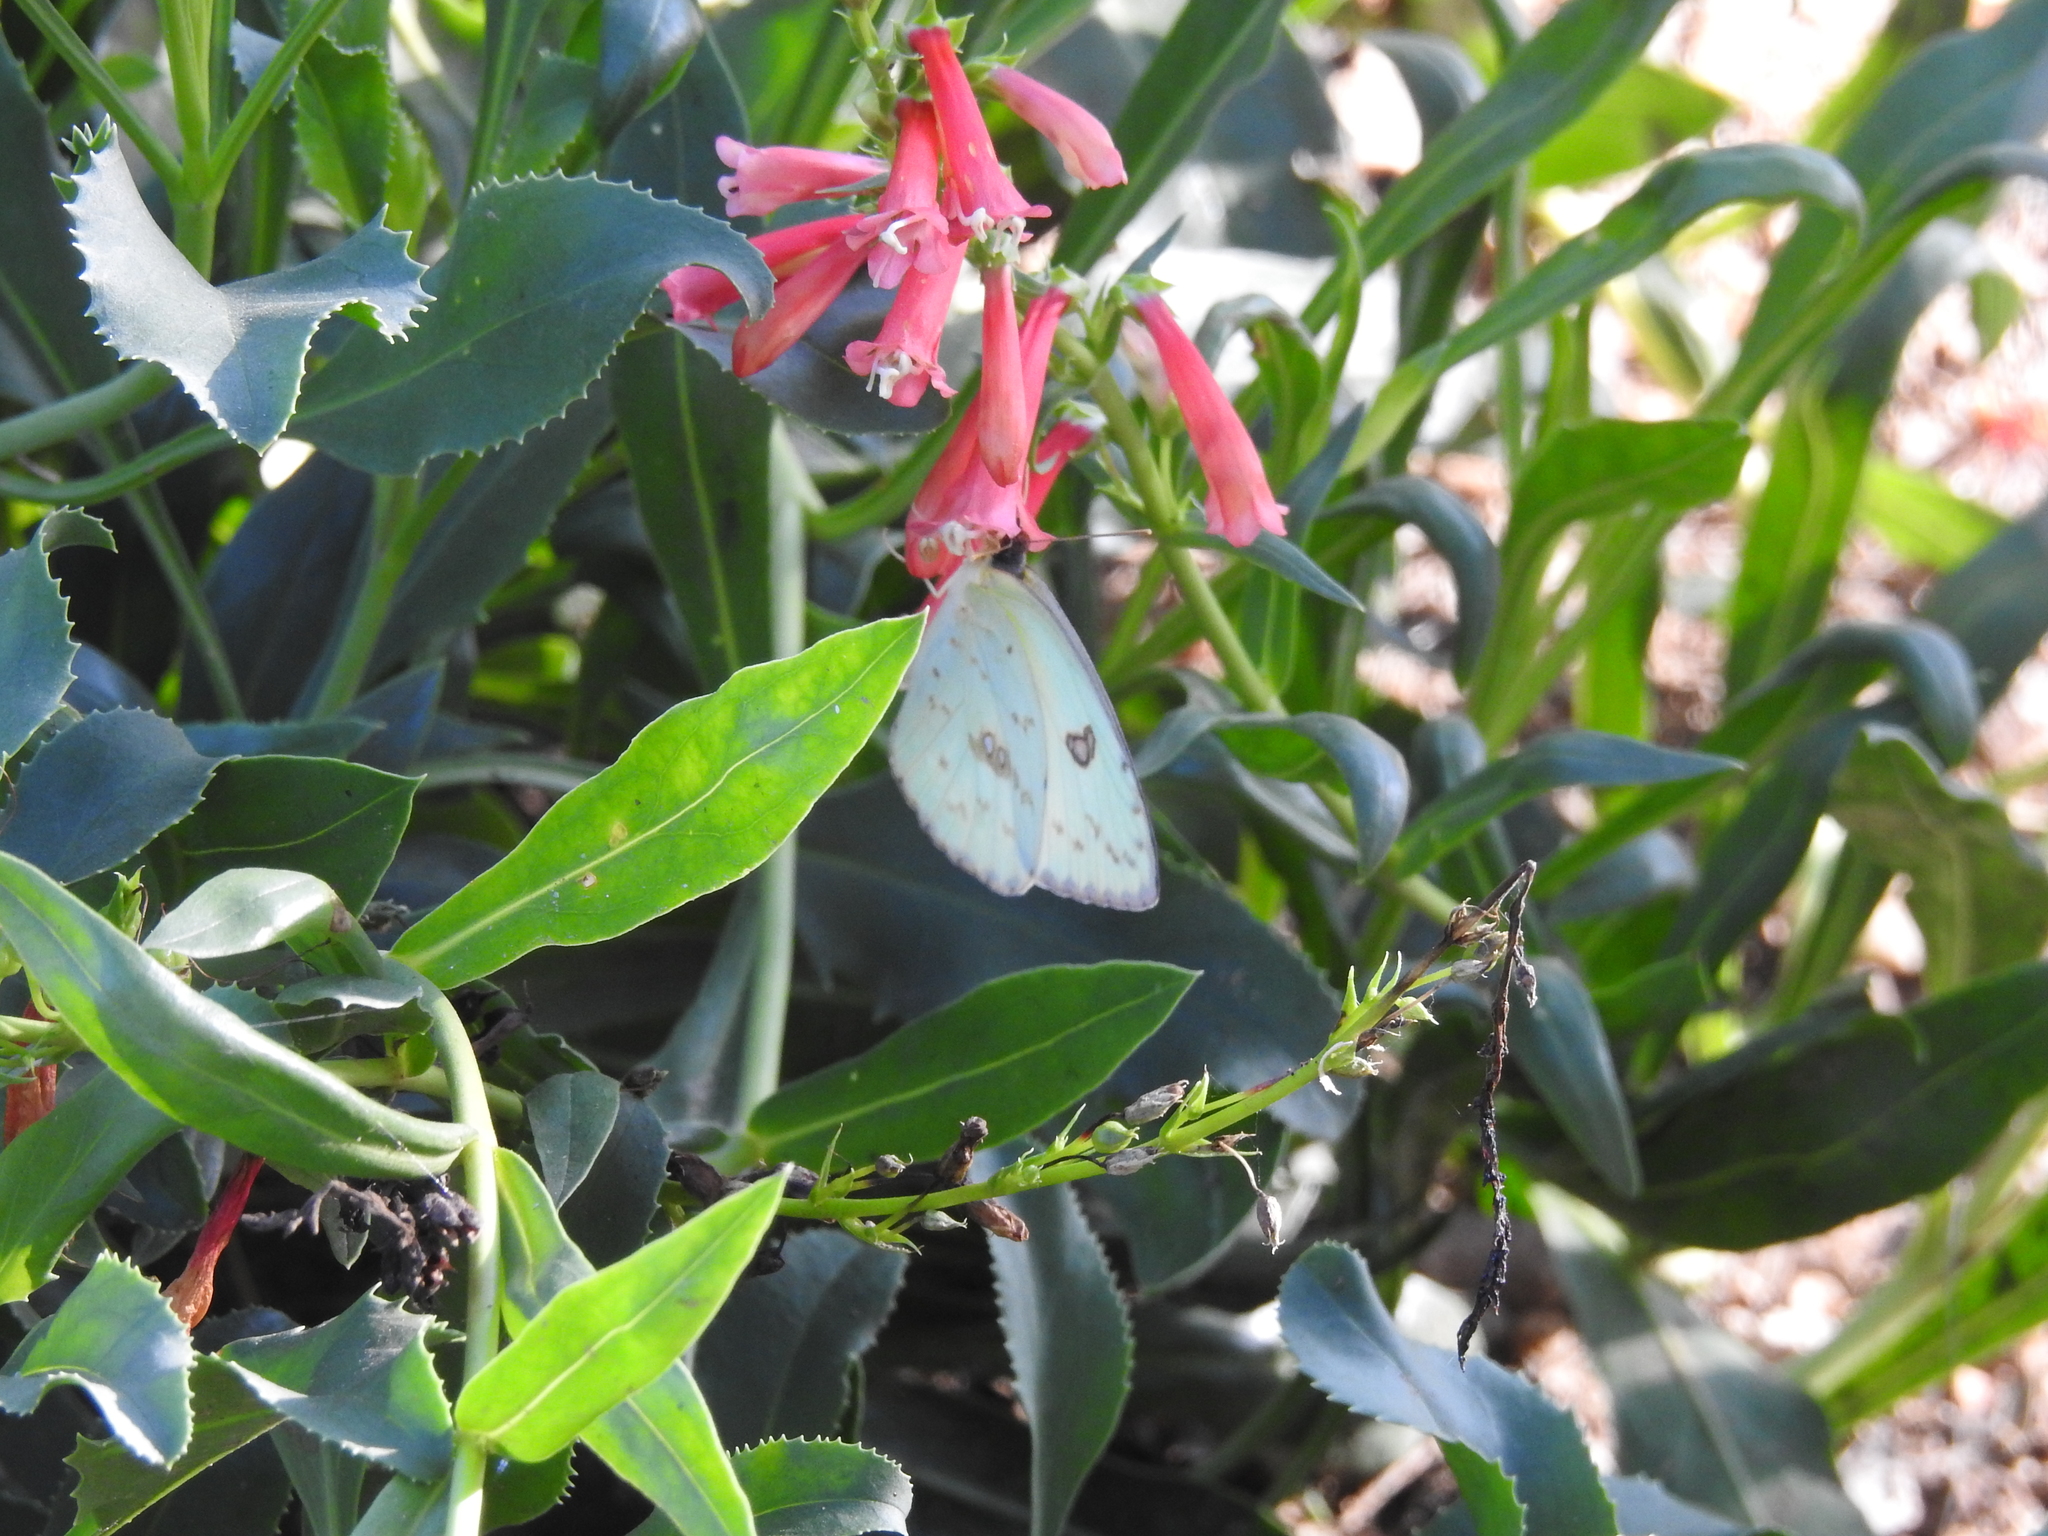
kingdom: Animalia
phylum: Arthropoda
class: Insecta
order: Lepidoptera
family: Pieridae
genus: Phoebis
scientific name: Phoebis sennae
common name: Cloudless sulphur
